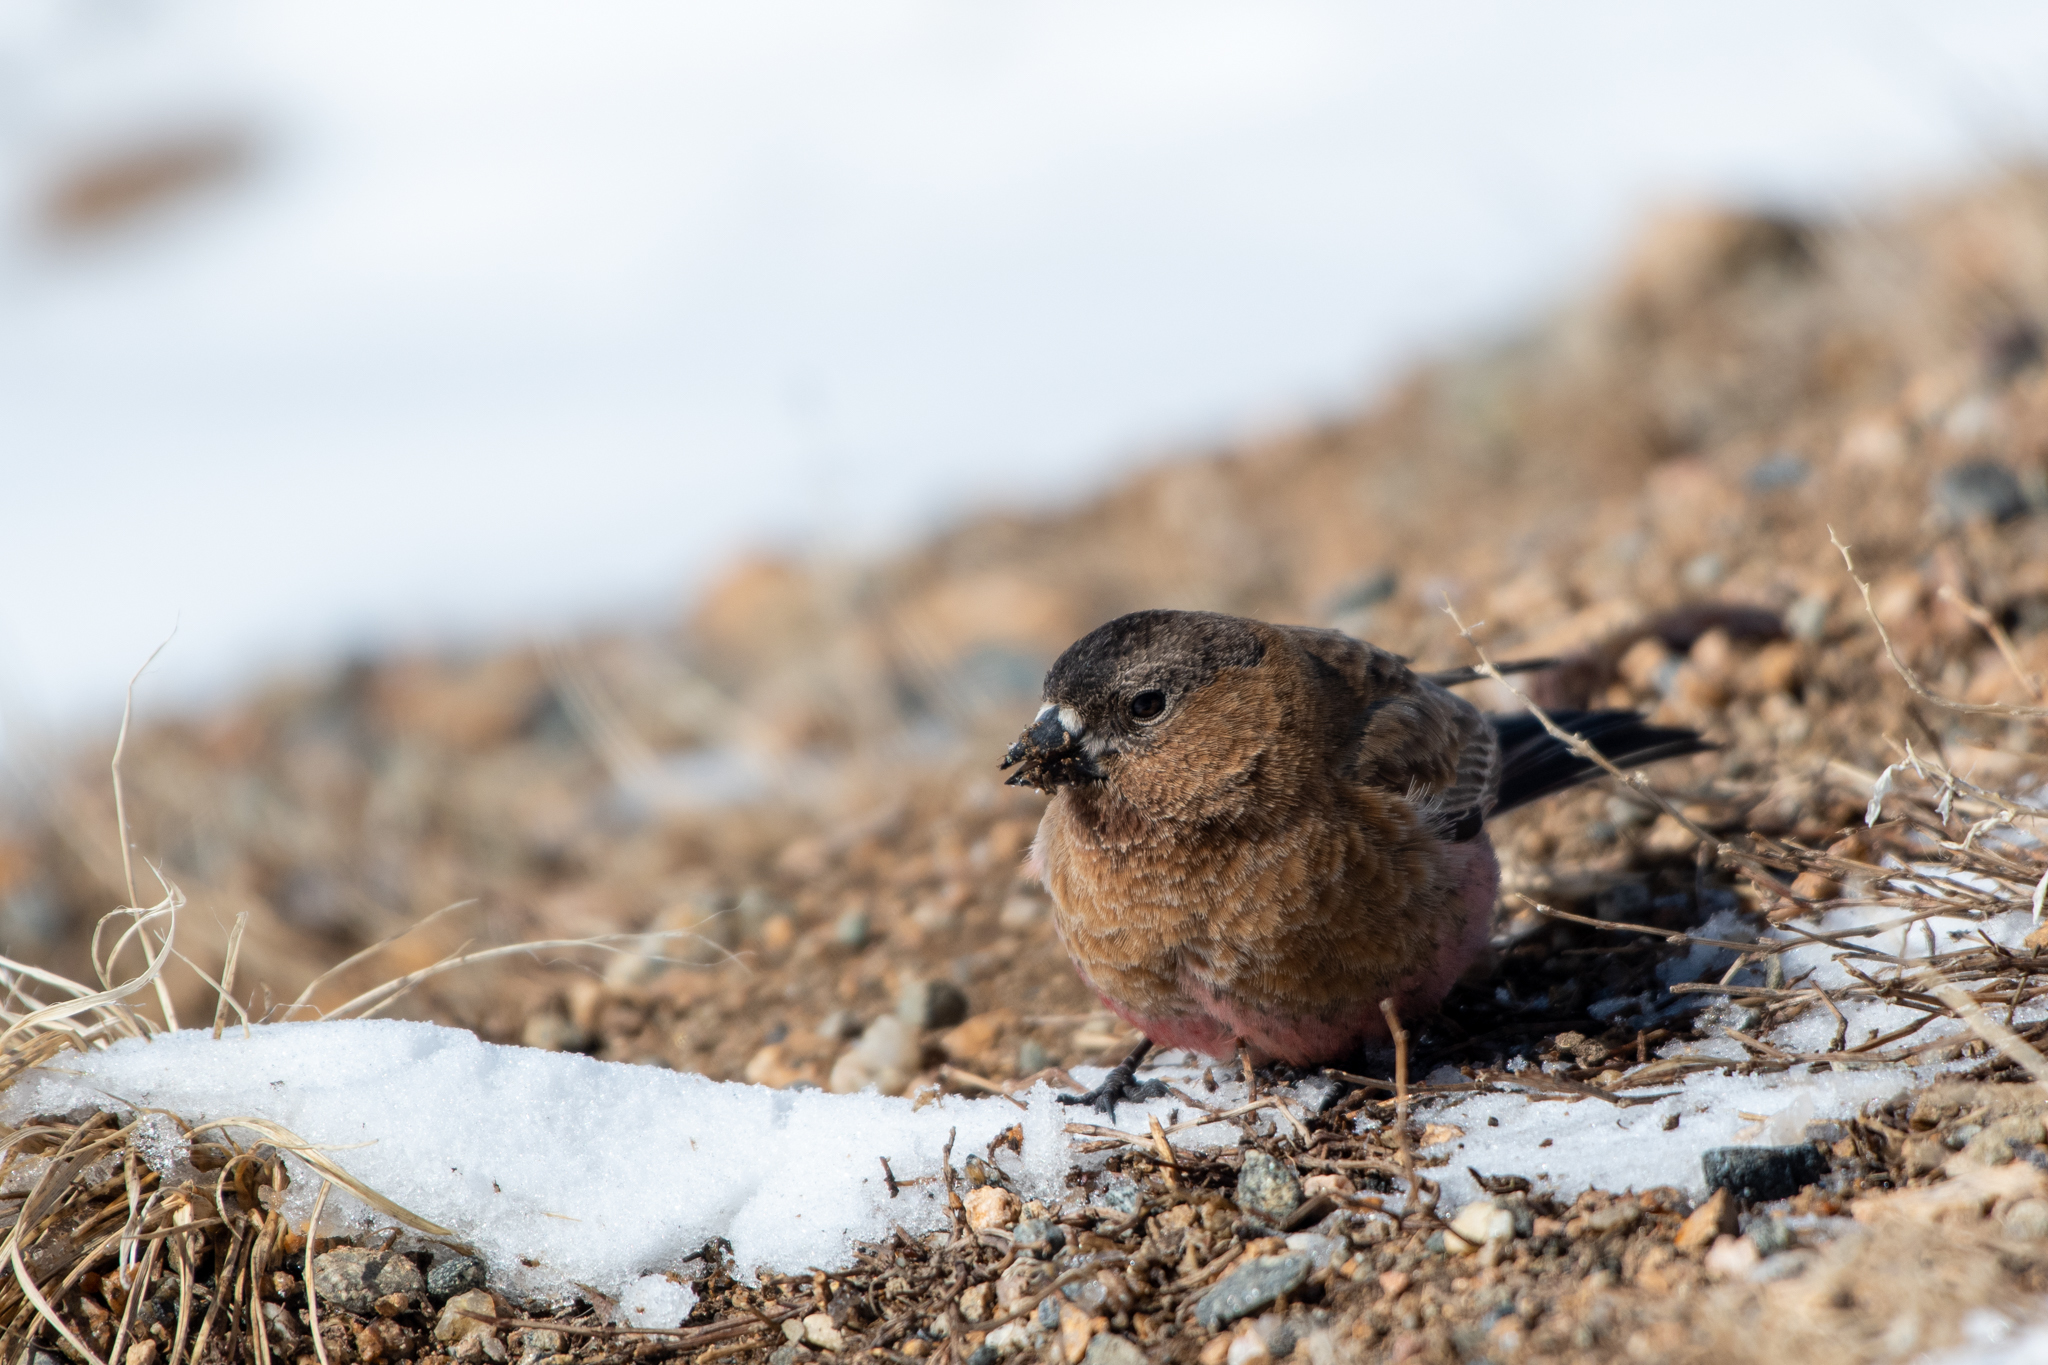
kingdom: Animalia
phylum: Chordata
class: Aves
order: Passeriformes
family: Fringillidae
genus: Leucosticte
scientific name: Leucosticte australis
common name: Brown-capped rosy-finch
